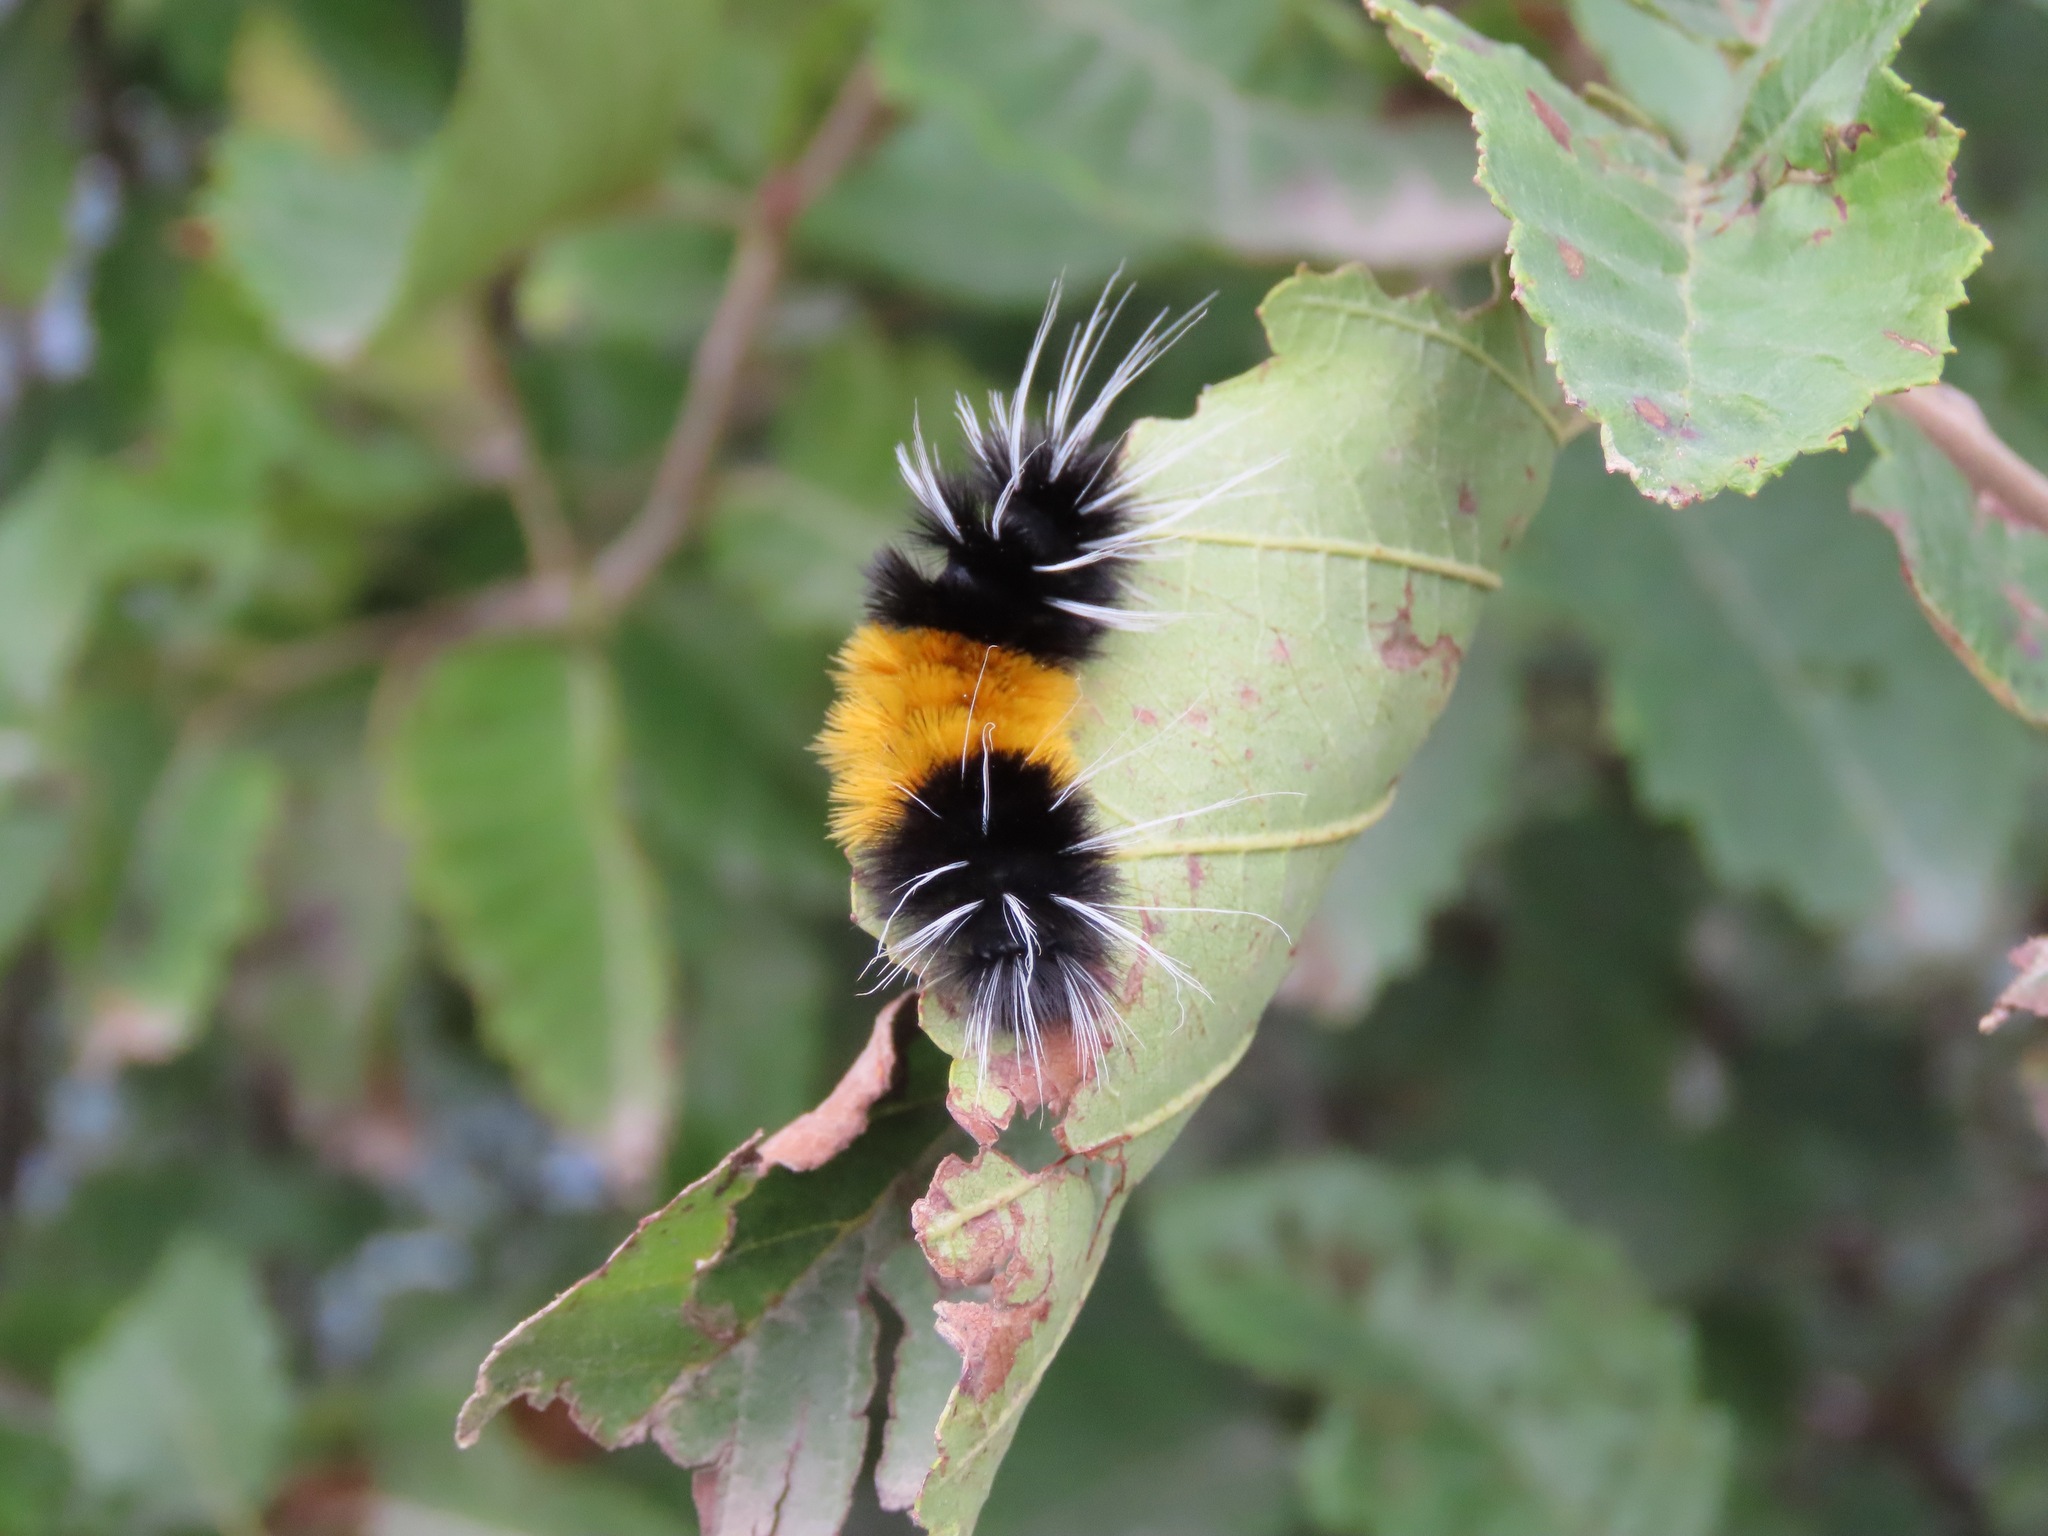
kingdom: Animalia
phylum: Arthropoda
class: Insecta
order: Lepidoptera
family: Erebidae
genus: Lophocampa
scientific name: Lophocampa maculata
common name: Spotted tussock moth
